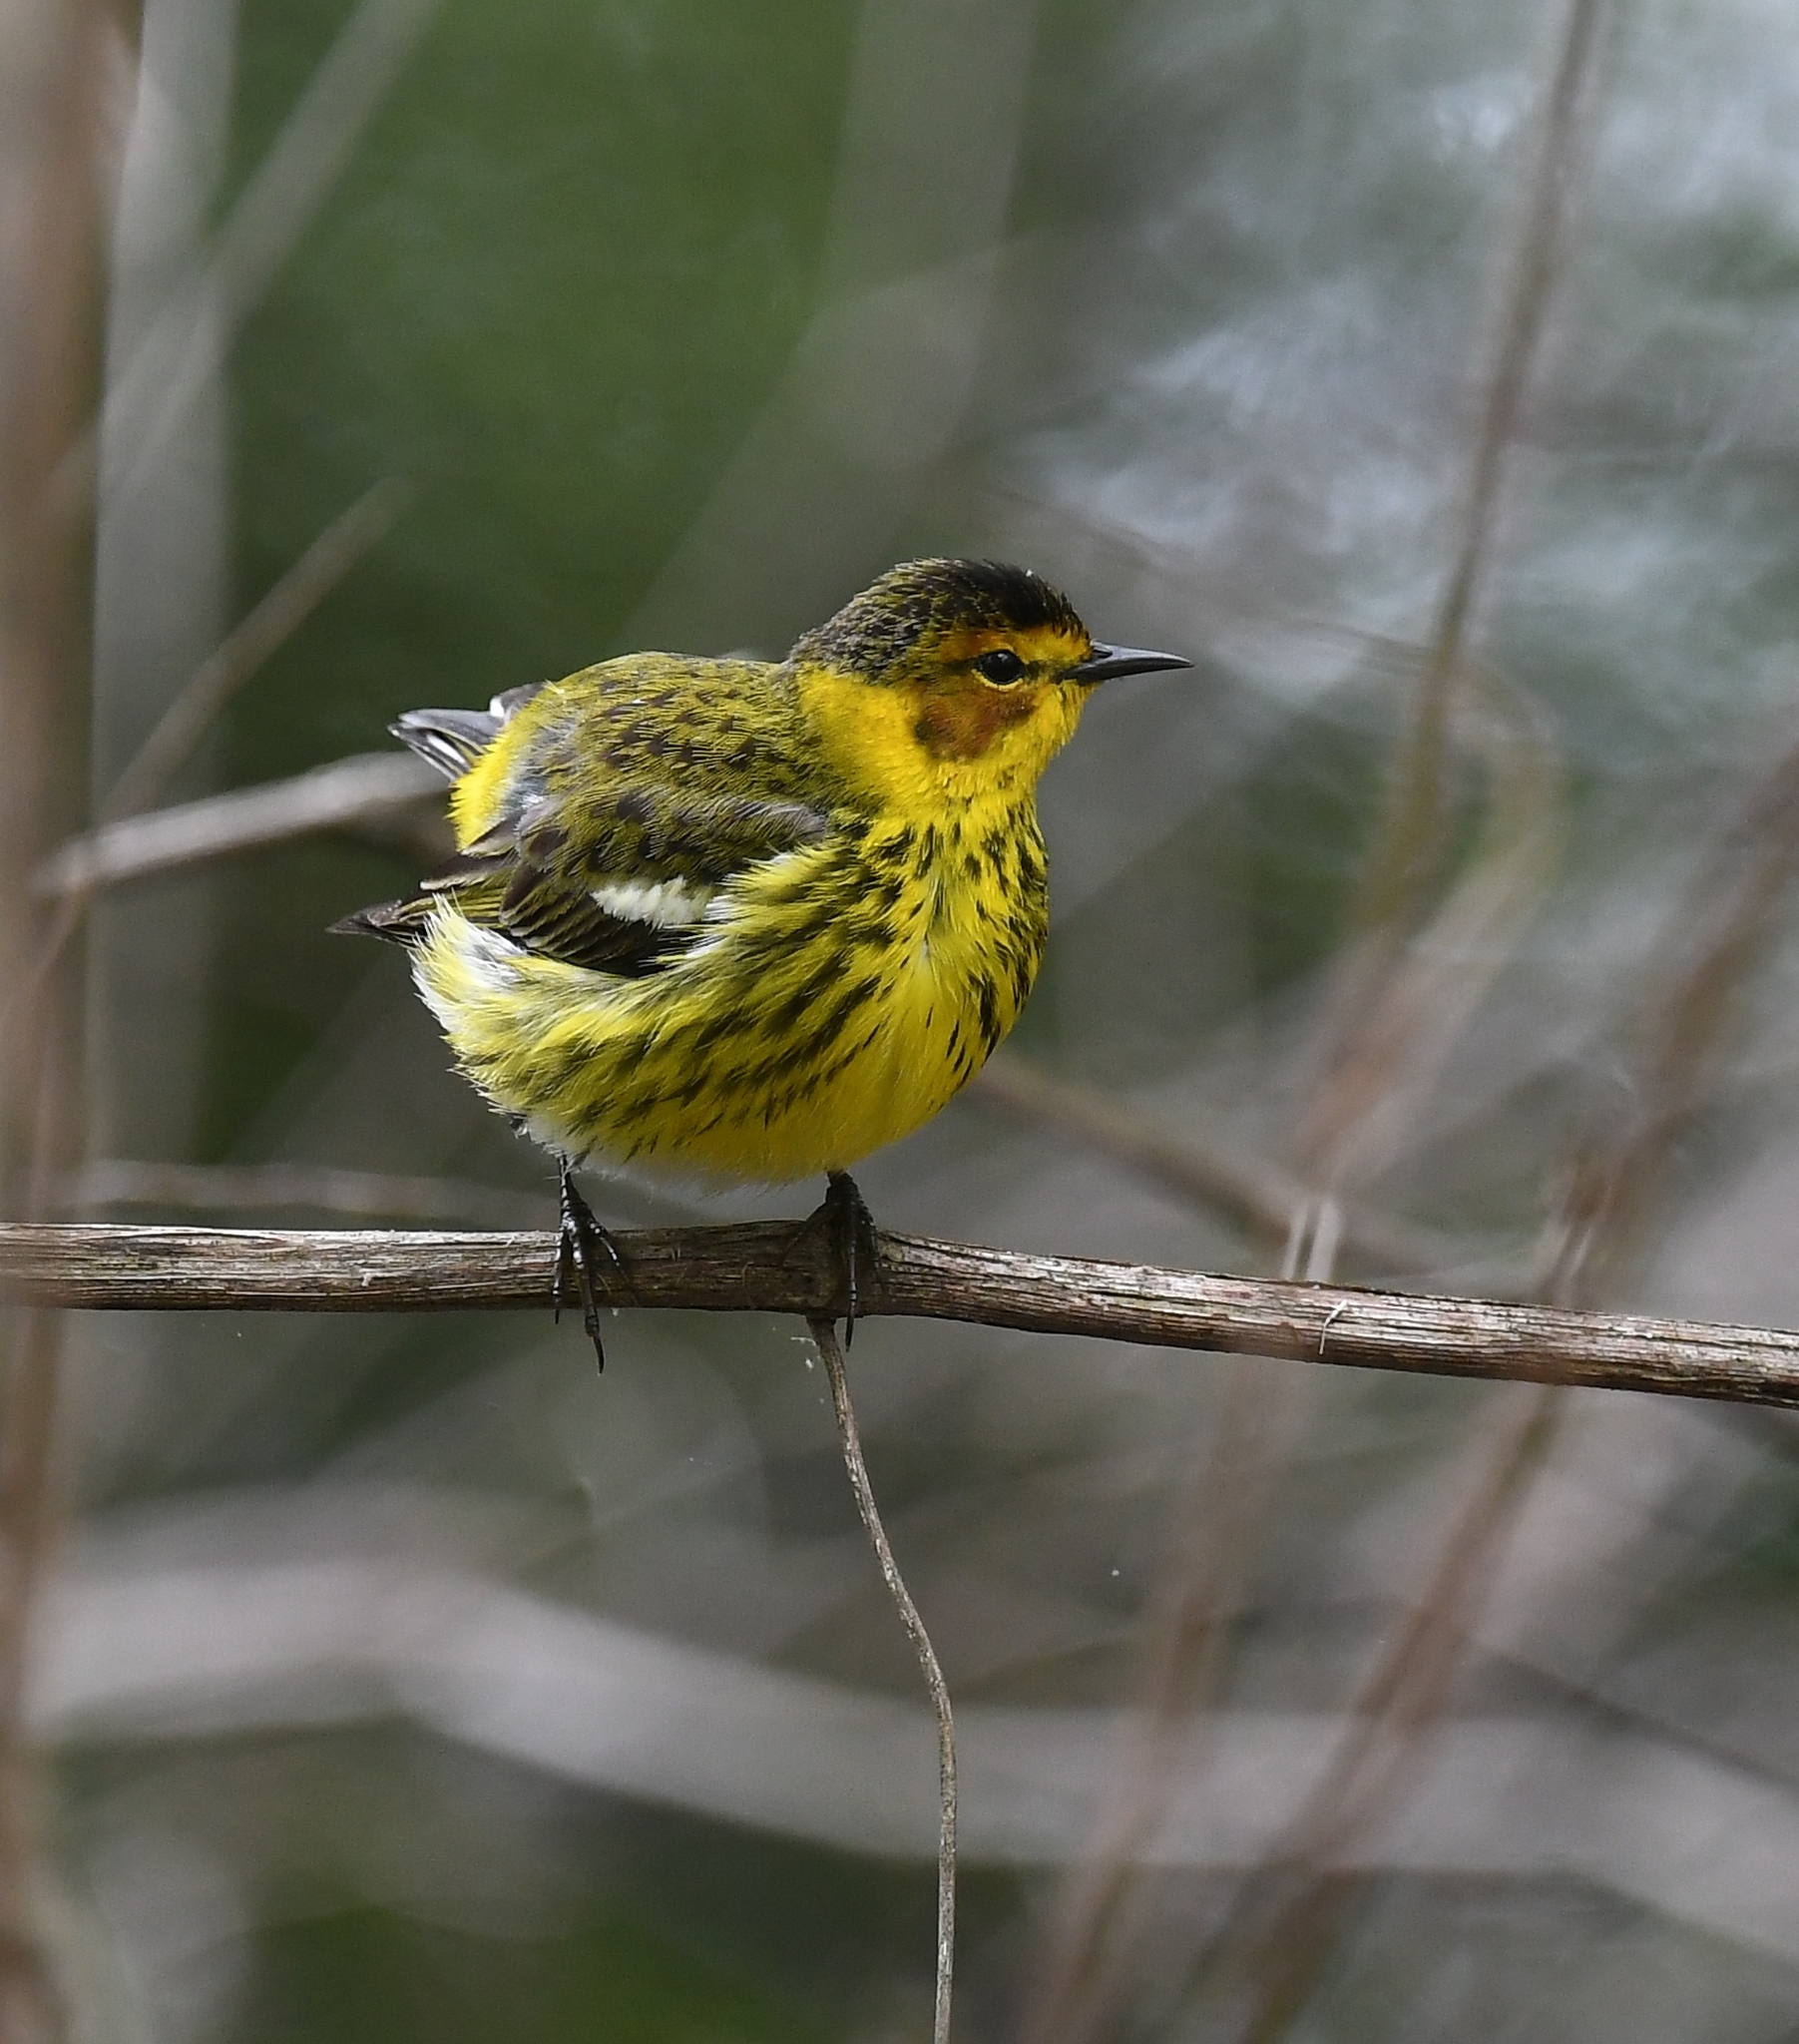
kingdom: Animalia
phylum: Chordata
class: Aves
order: Passeriformes
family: Parulidae
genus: Setophaga
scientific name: Setophaga tigrina
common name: Cape may warbler
